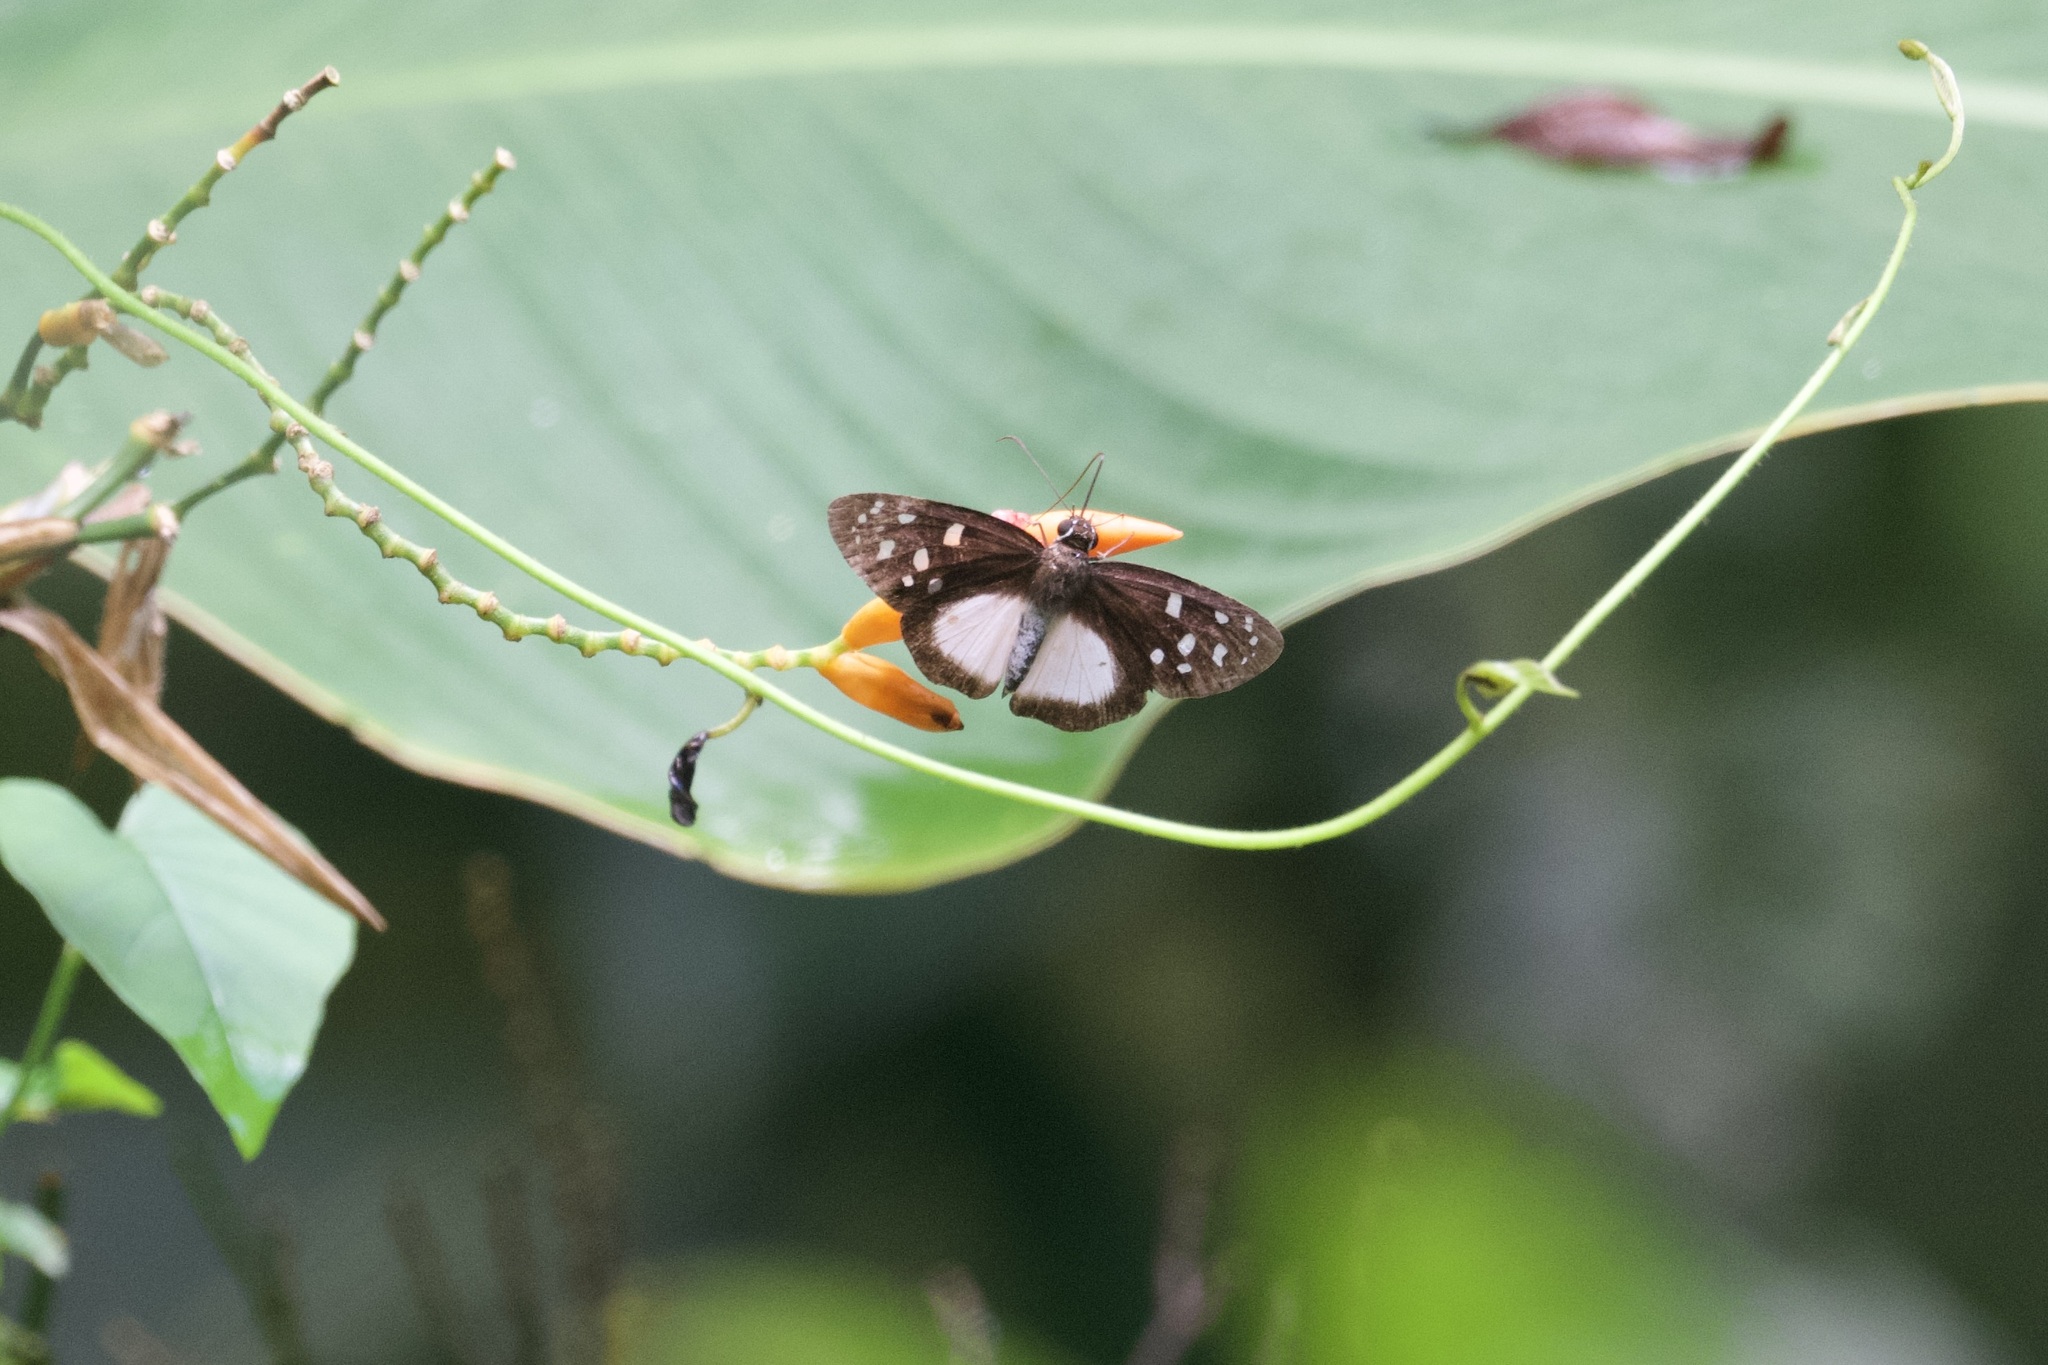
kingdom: Animalia
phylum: Arthropoda
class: Insecta
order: Lepidoptera
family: Hesperiidae
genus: Hyalothyrus
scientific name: Hyalothyrus neleus
